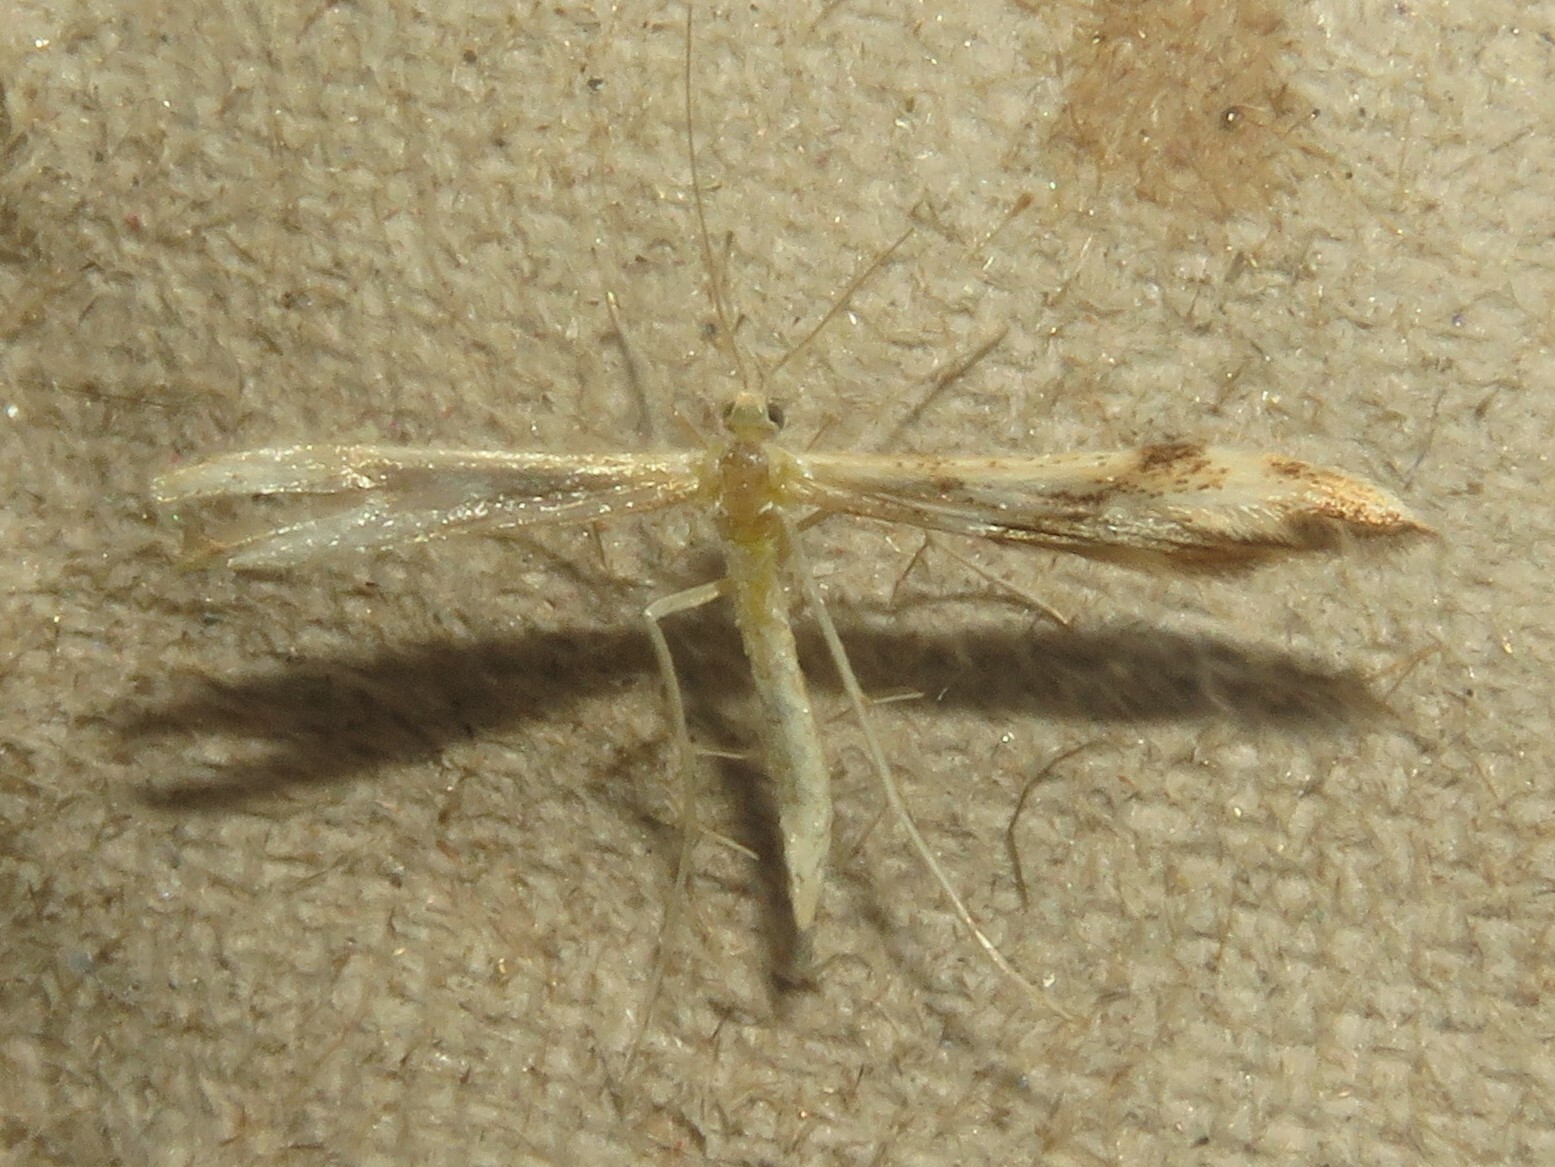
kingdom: Animalia
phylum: Arthropoda
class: Insecta
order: Lepidoptera
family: Pterophoridae
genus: Adaina
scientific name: Adaina montanus
